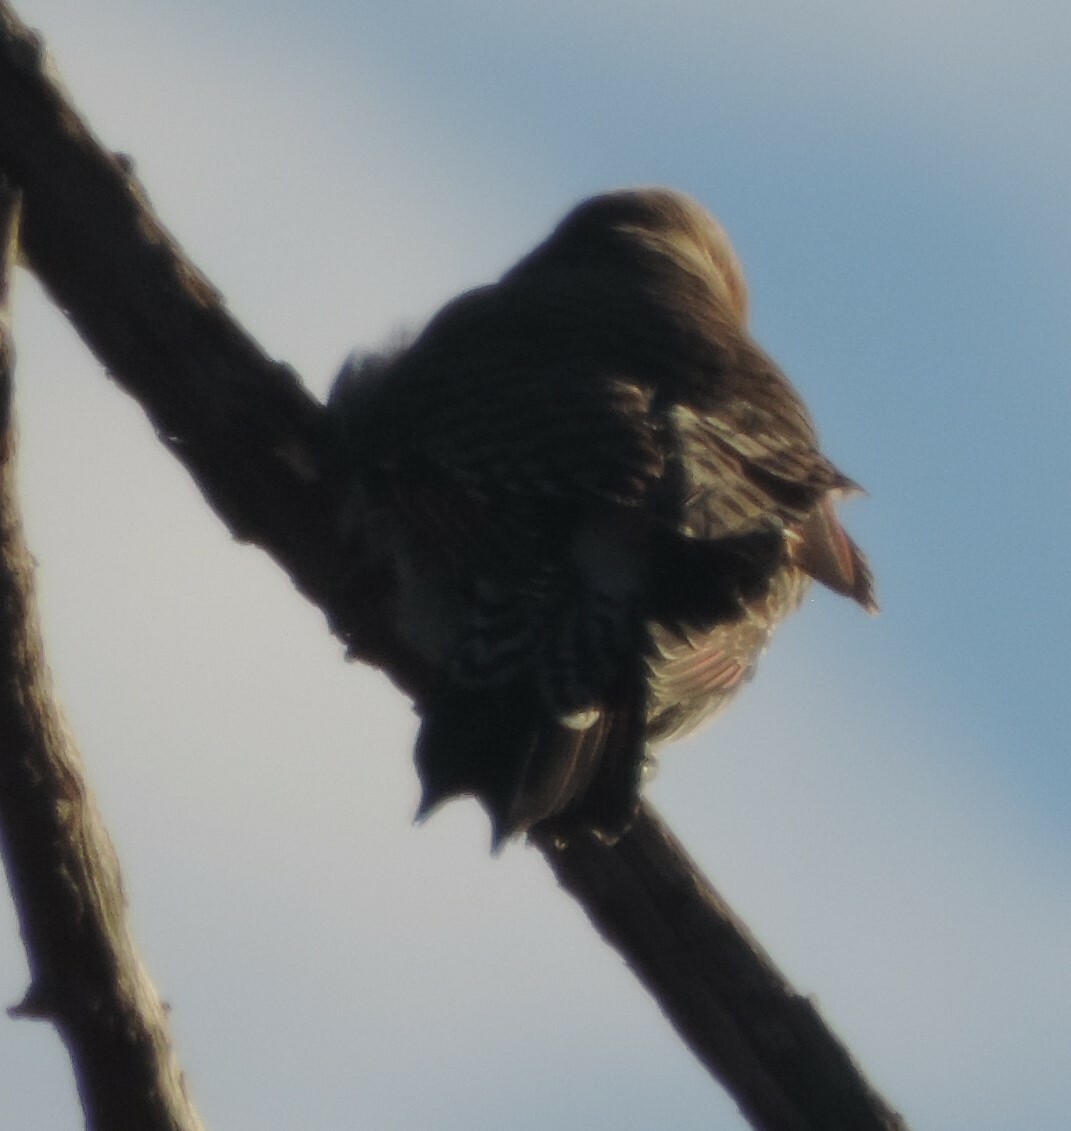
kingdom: Animalia
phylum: Chordata
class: Aves
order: Piciformes
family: Picidae
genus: Colaptes
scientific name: Colaptes auratus
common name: Northern flicker
